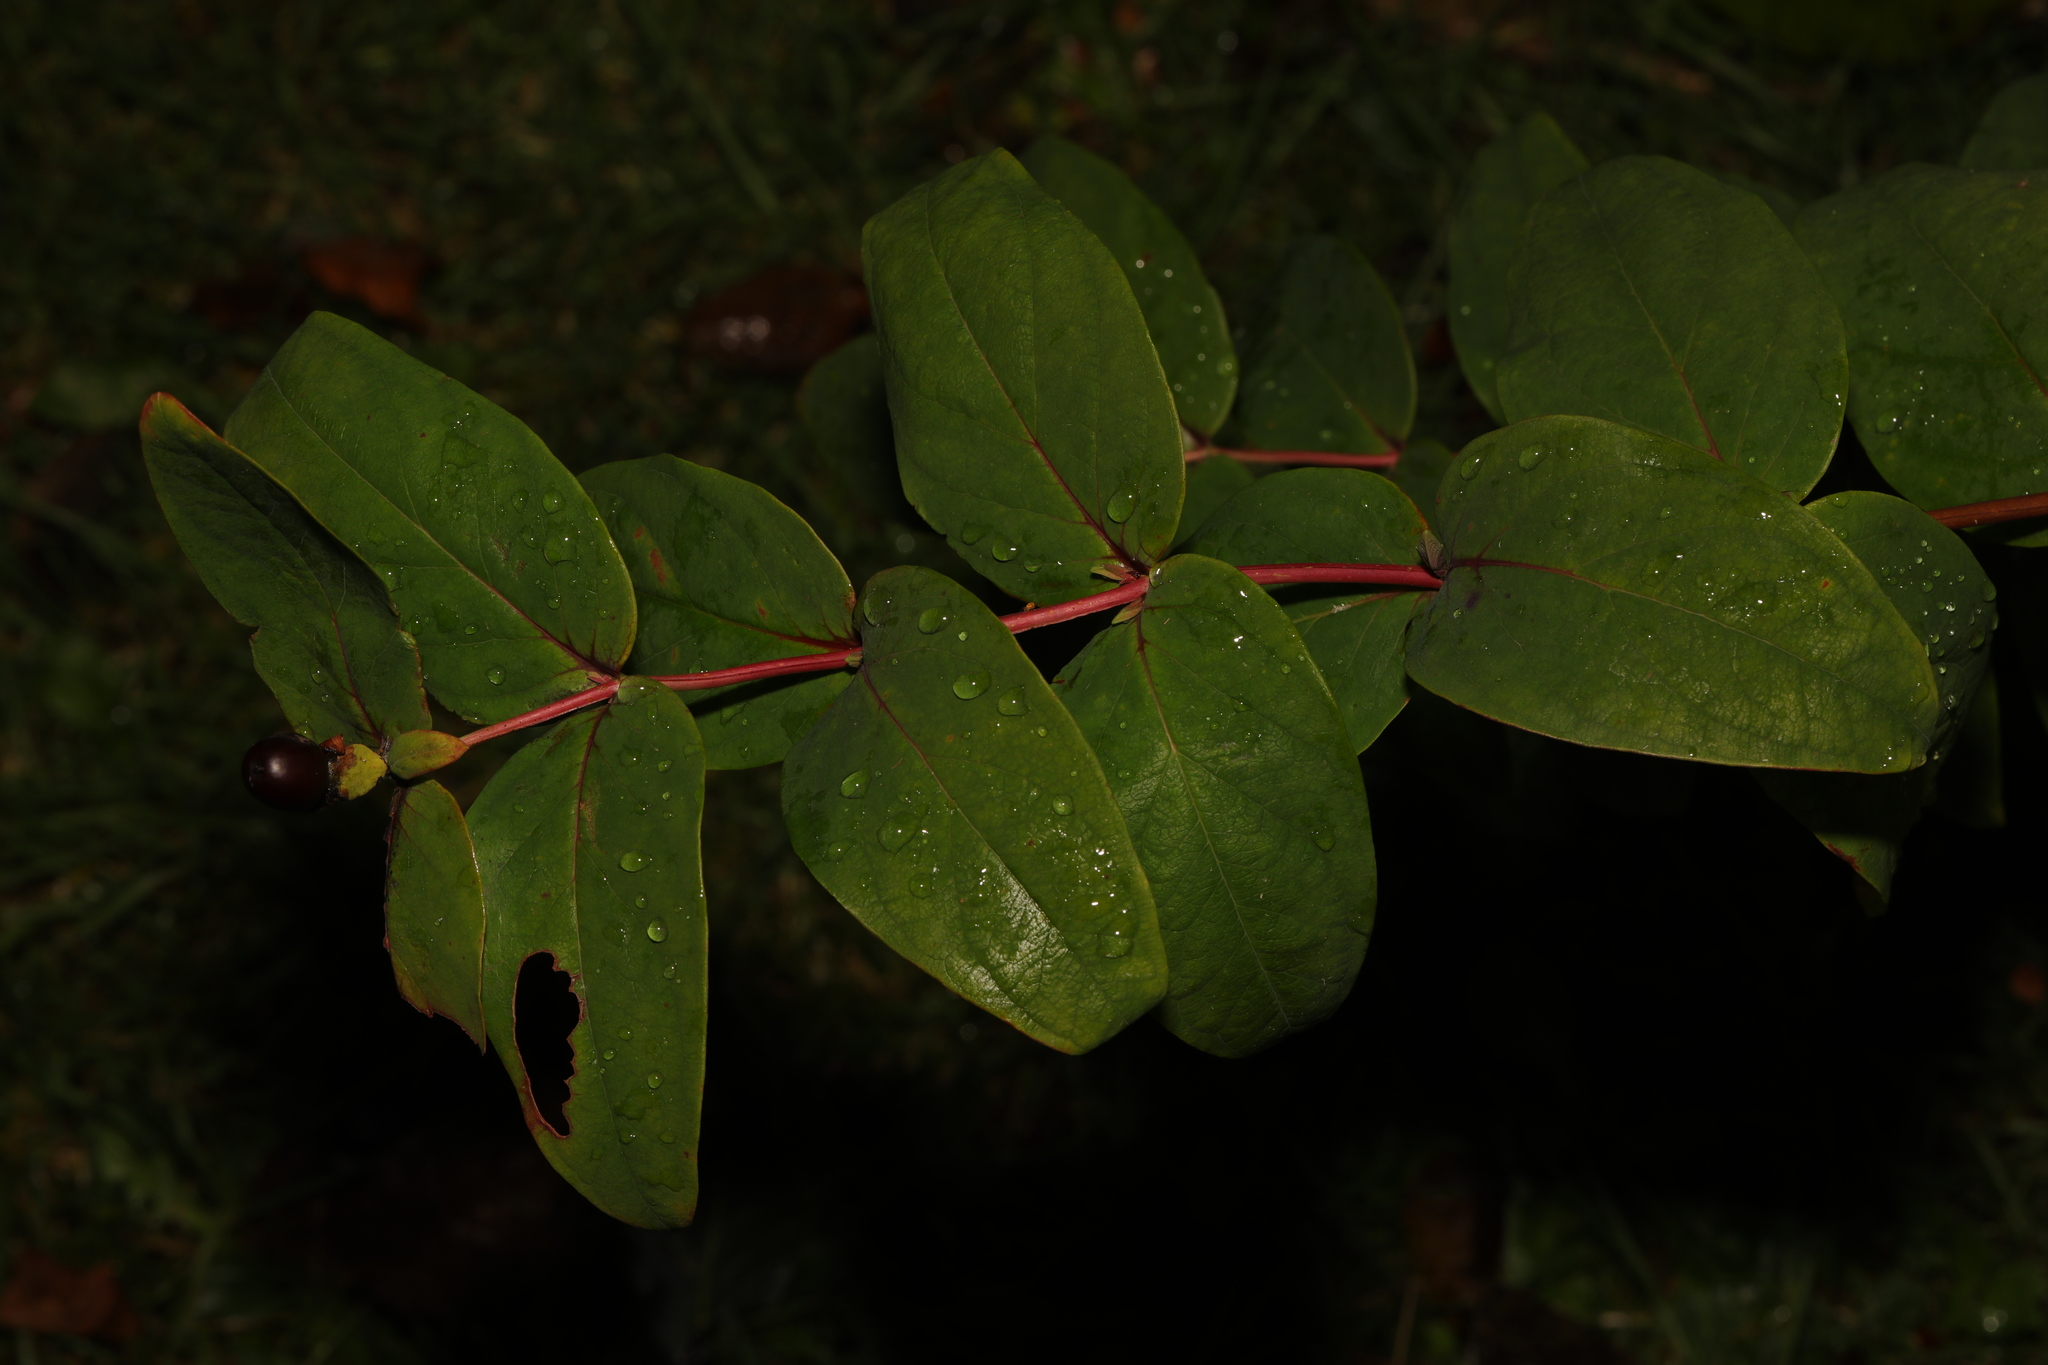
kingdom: Plantae
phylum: Tracheophyta
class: Magnoliopsida
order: Malpighiales
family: Hypericaceae
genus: Hypericum
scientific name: Hypericum androsaemum
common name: Sweet-amber
